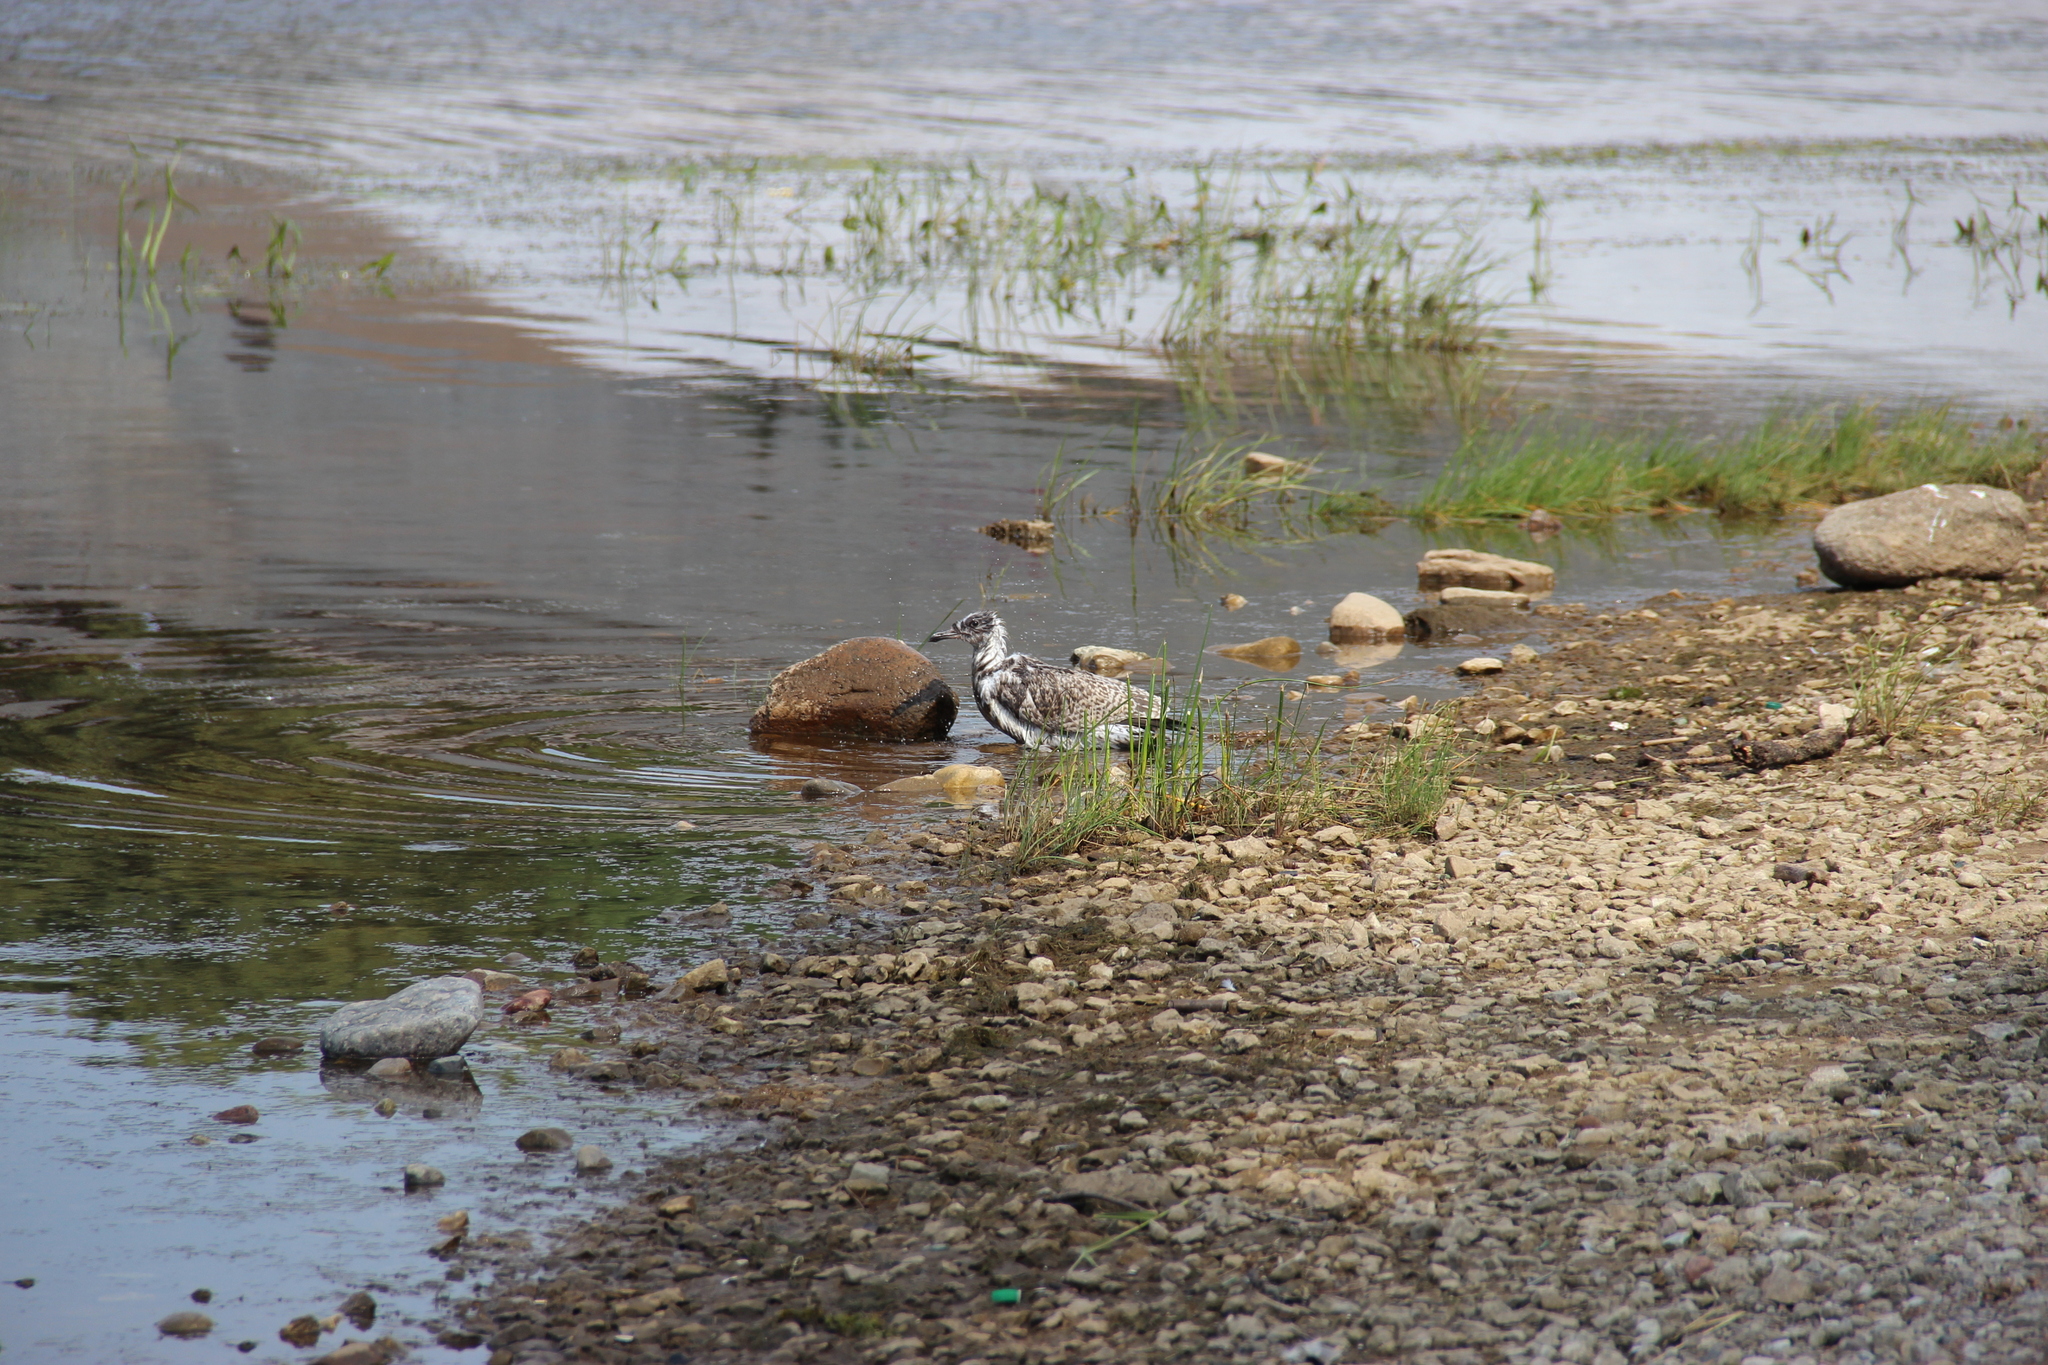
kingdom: Animalia
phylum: Chordata
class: Aves
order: Charadriiformes
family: Laridae
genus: Larus
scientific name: Larus argentatus
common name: Herring gull
